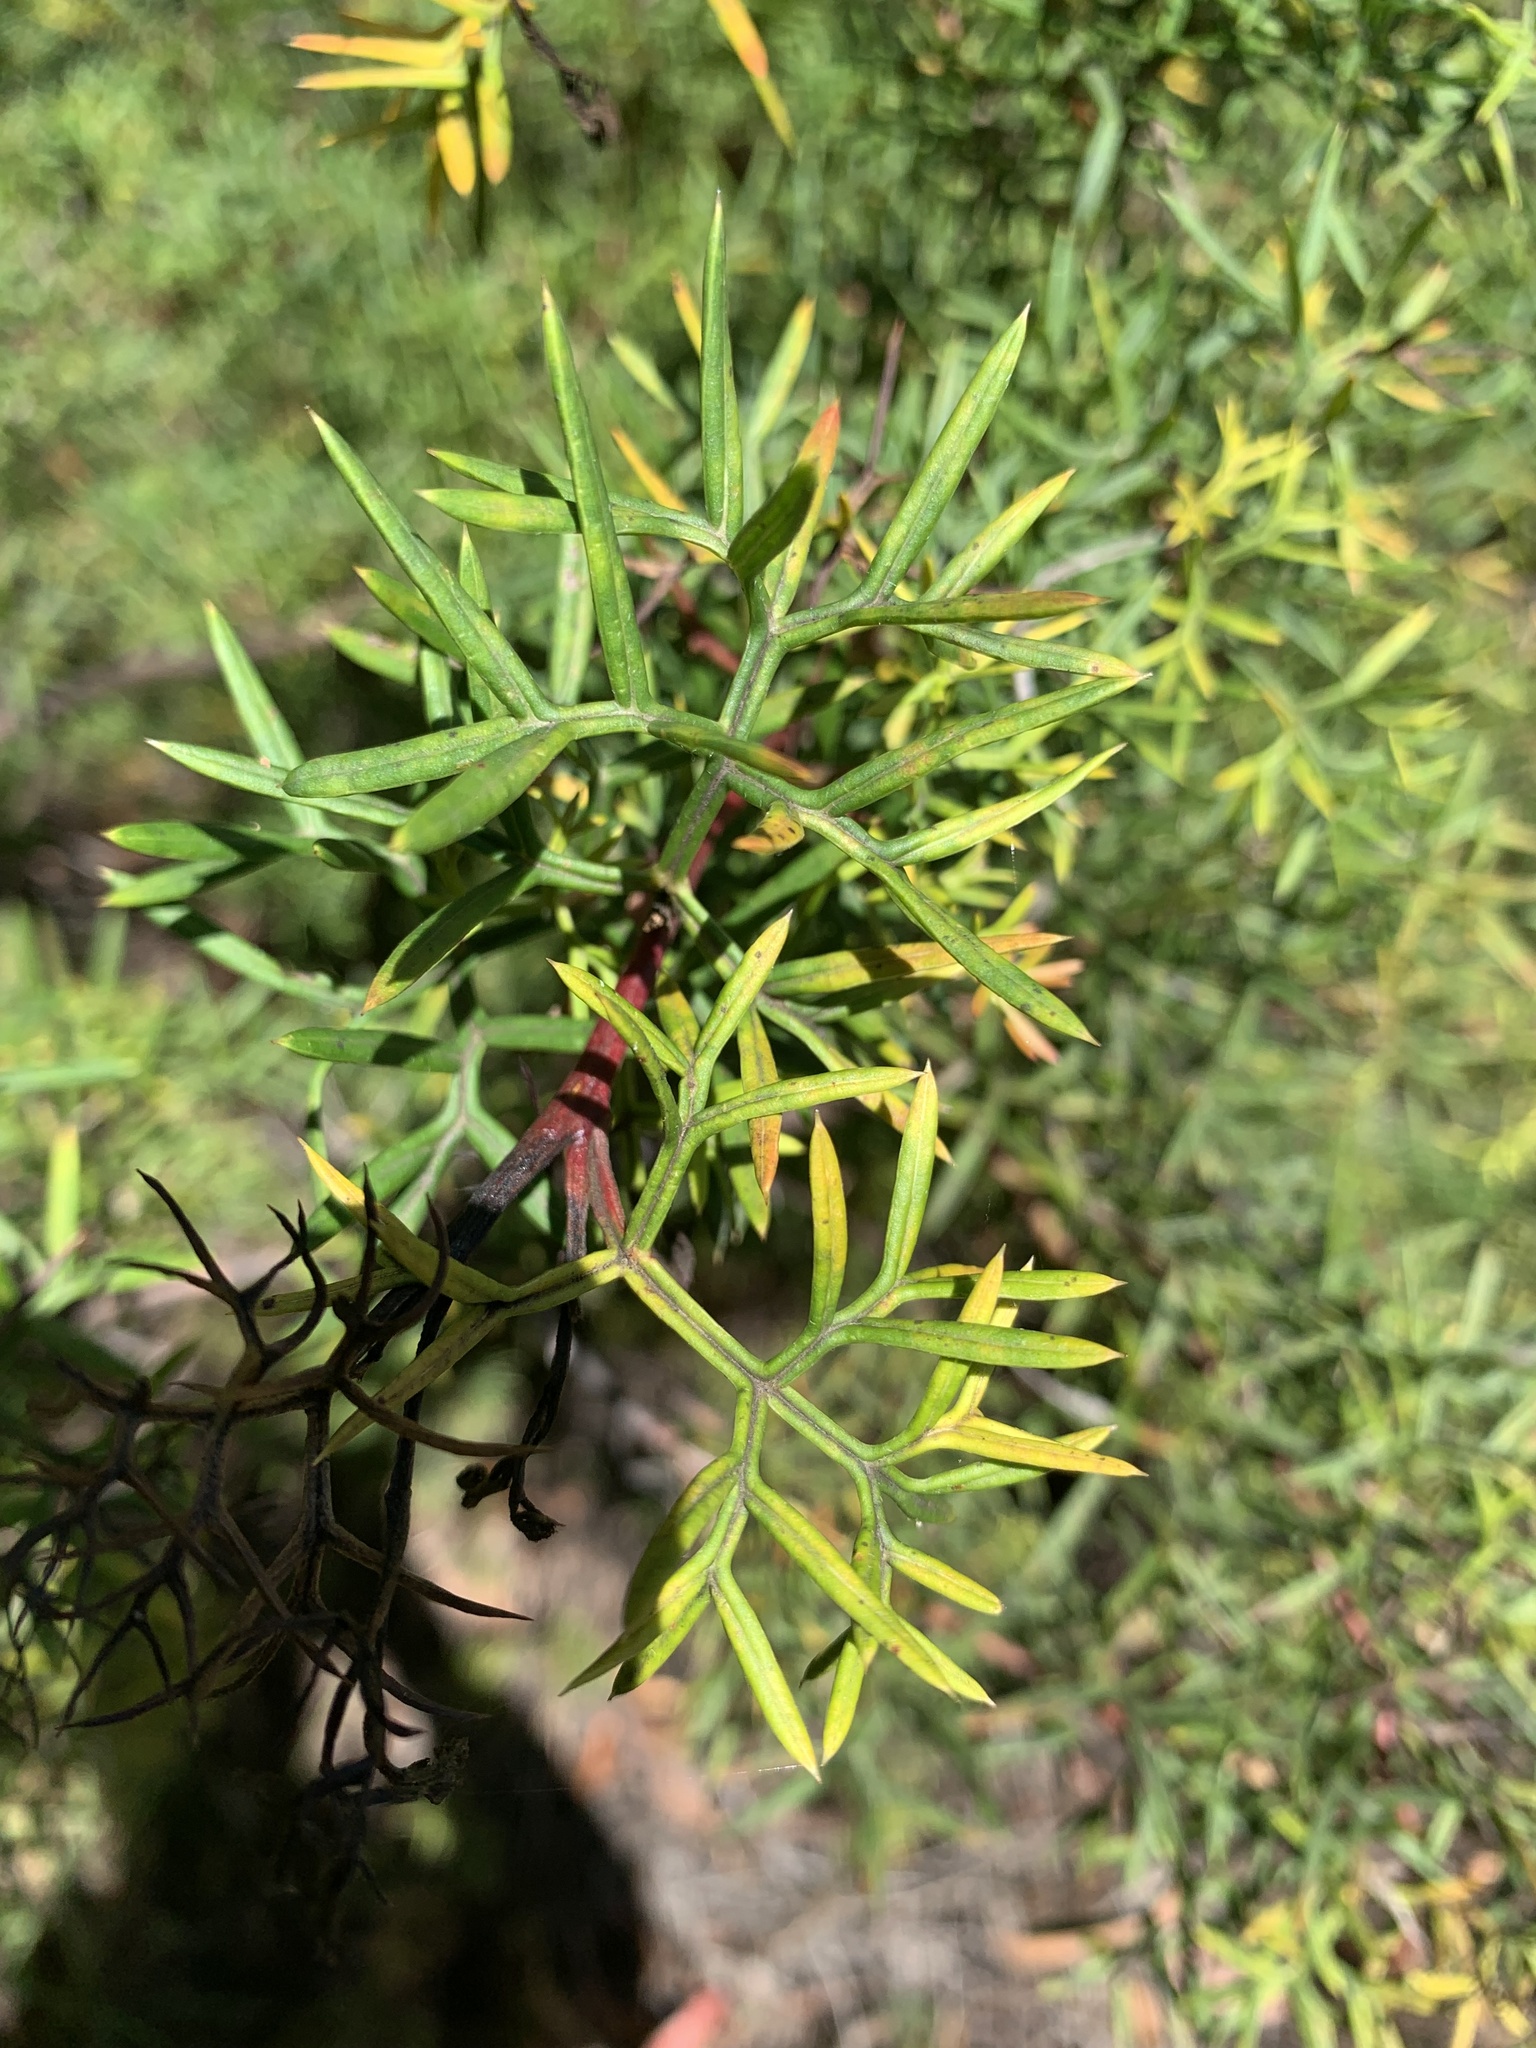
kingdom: Plantae
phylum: Tracheophyta
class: Magnoliopsida
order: Proteales
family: Proteaceae
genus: Grevillea
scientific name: Grevillea rivularis
